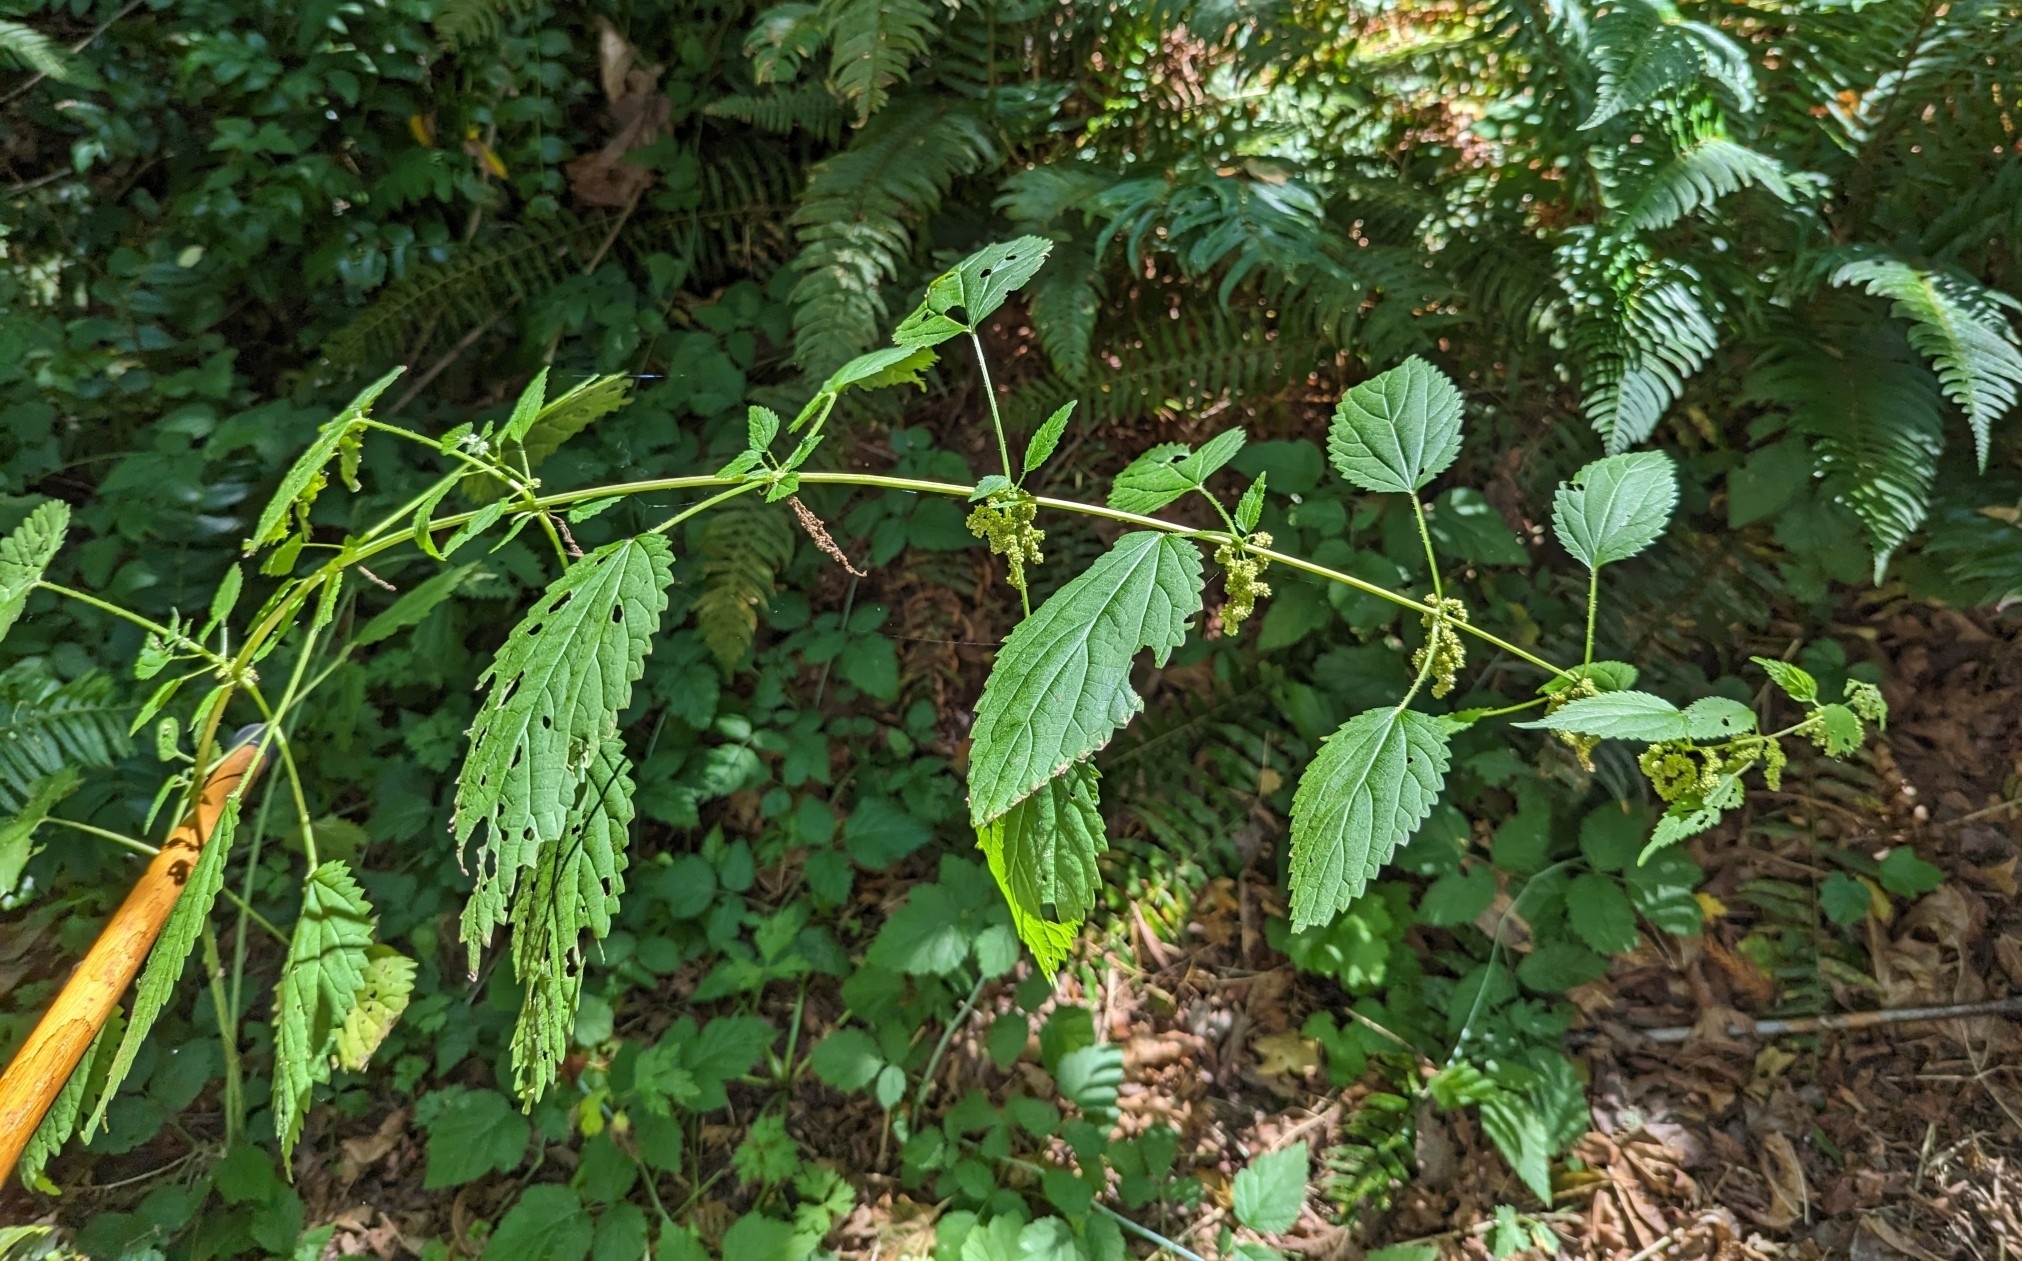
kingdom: Plantae
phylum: Tracheophyta
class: Magnoliopsida
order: Rosales
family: Urticaceae
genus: Urtica
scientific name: Urtica gracilis
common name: Slender stinging nettle
